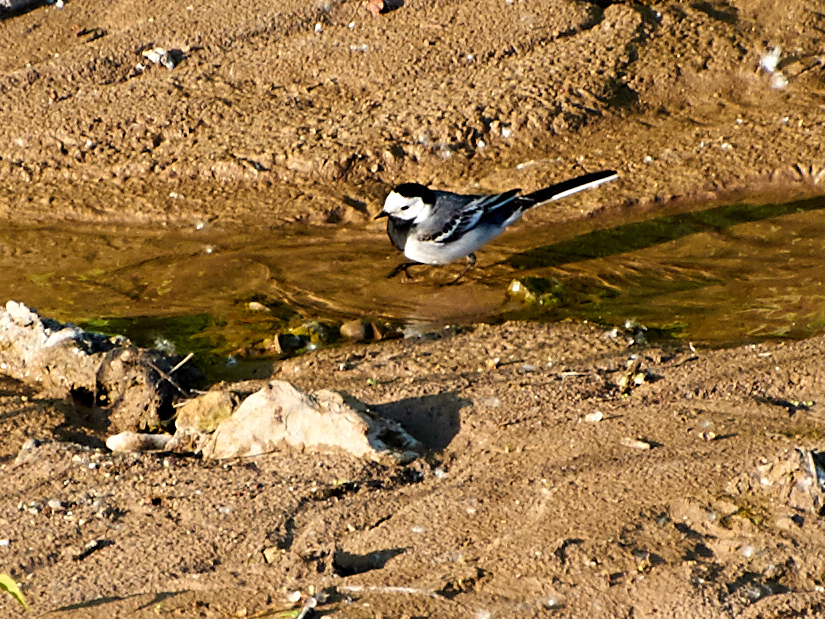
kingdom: Animalia
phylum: Chordata
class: Aves
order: Passeriformes
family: Motacillidae
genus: Motacilla
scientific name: Motacilla alba
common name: White wagtail
